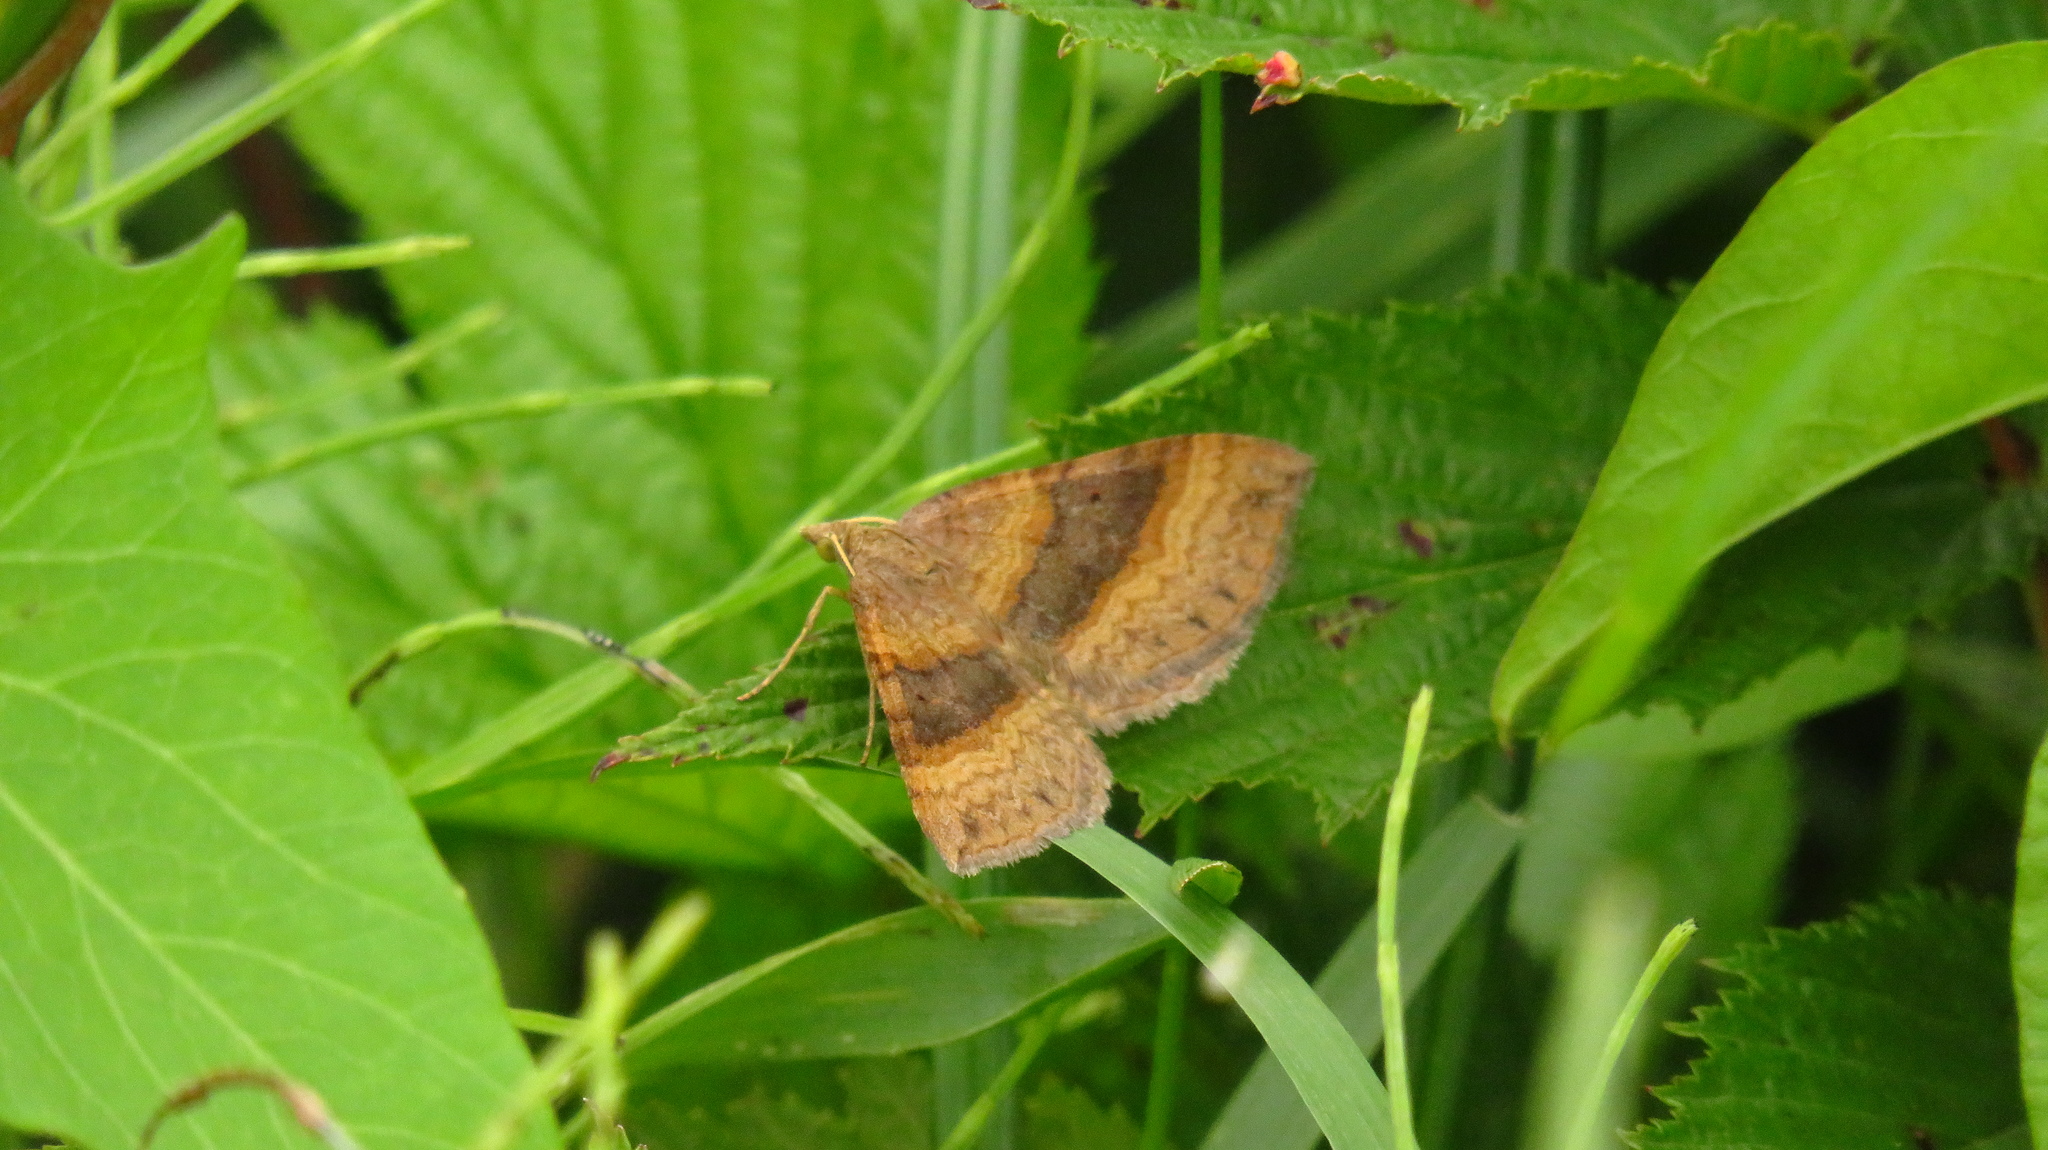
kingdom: Animalia
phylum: Arthropoda
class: Insecta
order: Lepidoptera
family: Geometridae
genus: Scotopteryx
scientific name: Scotopteryx chenopodiata
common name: Shaded broad-bar
